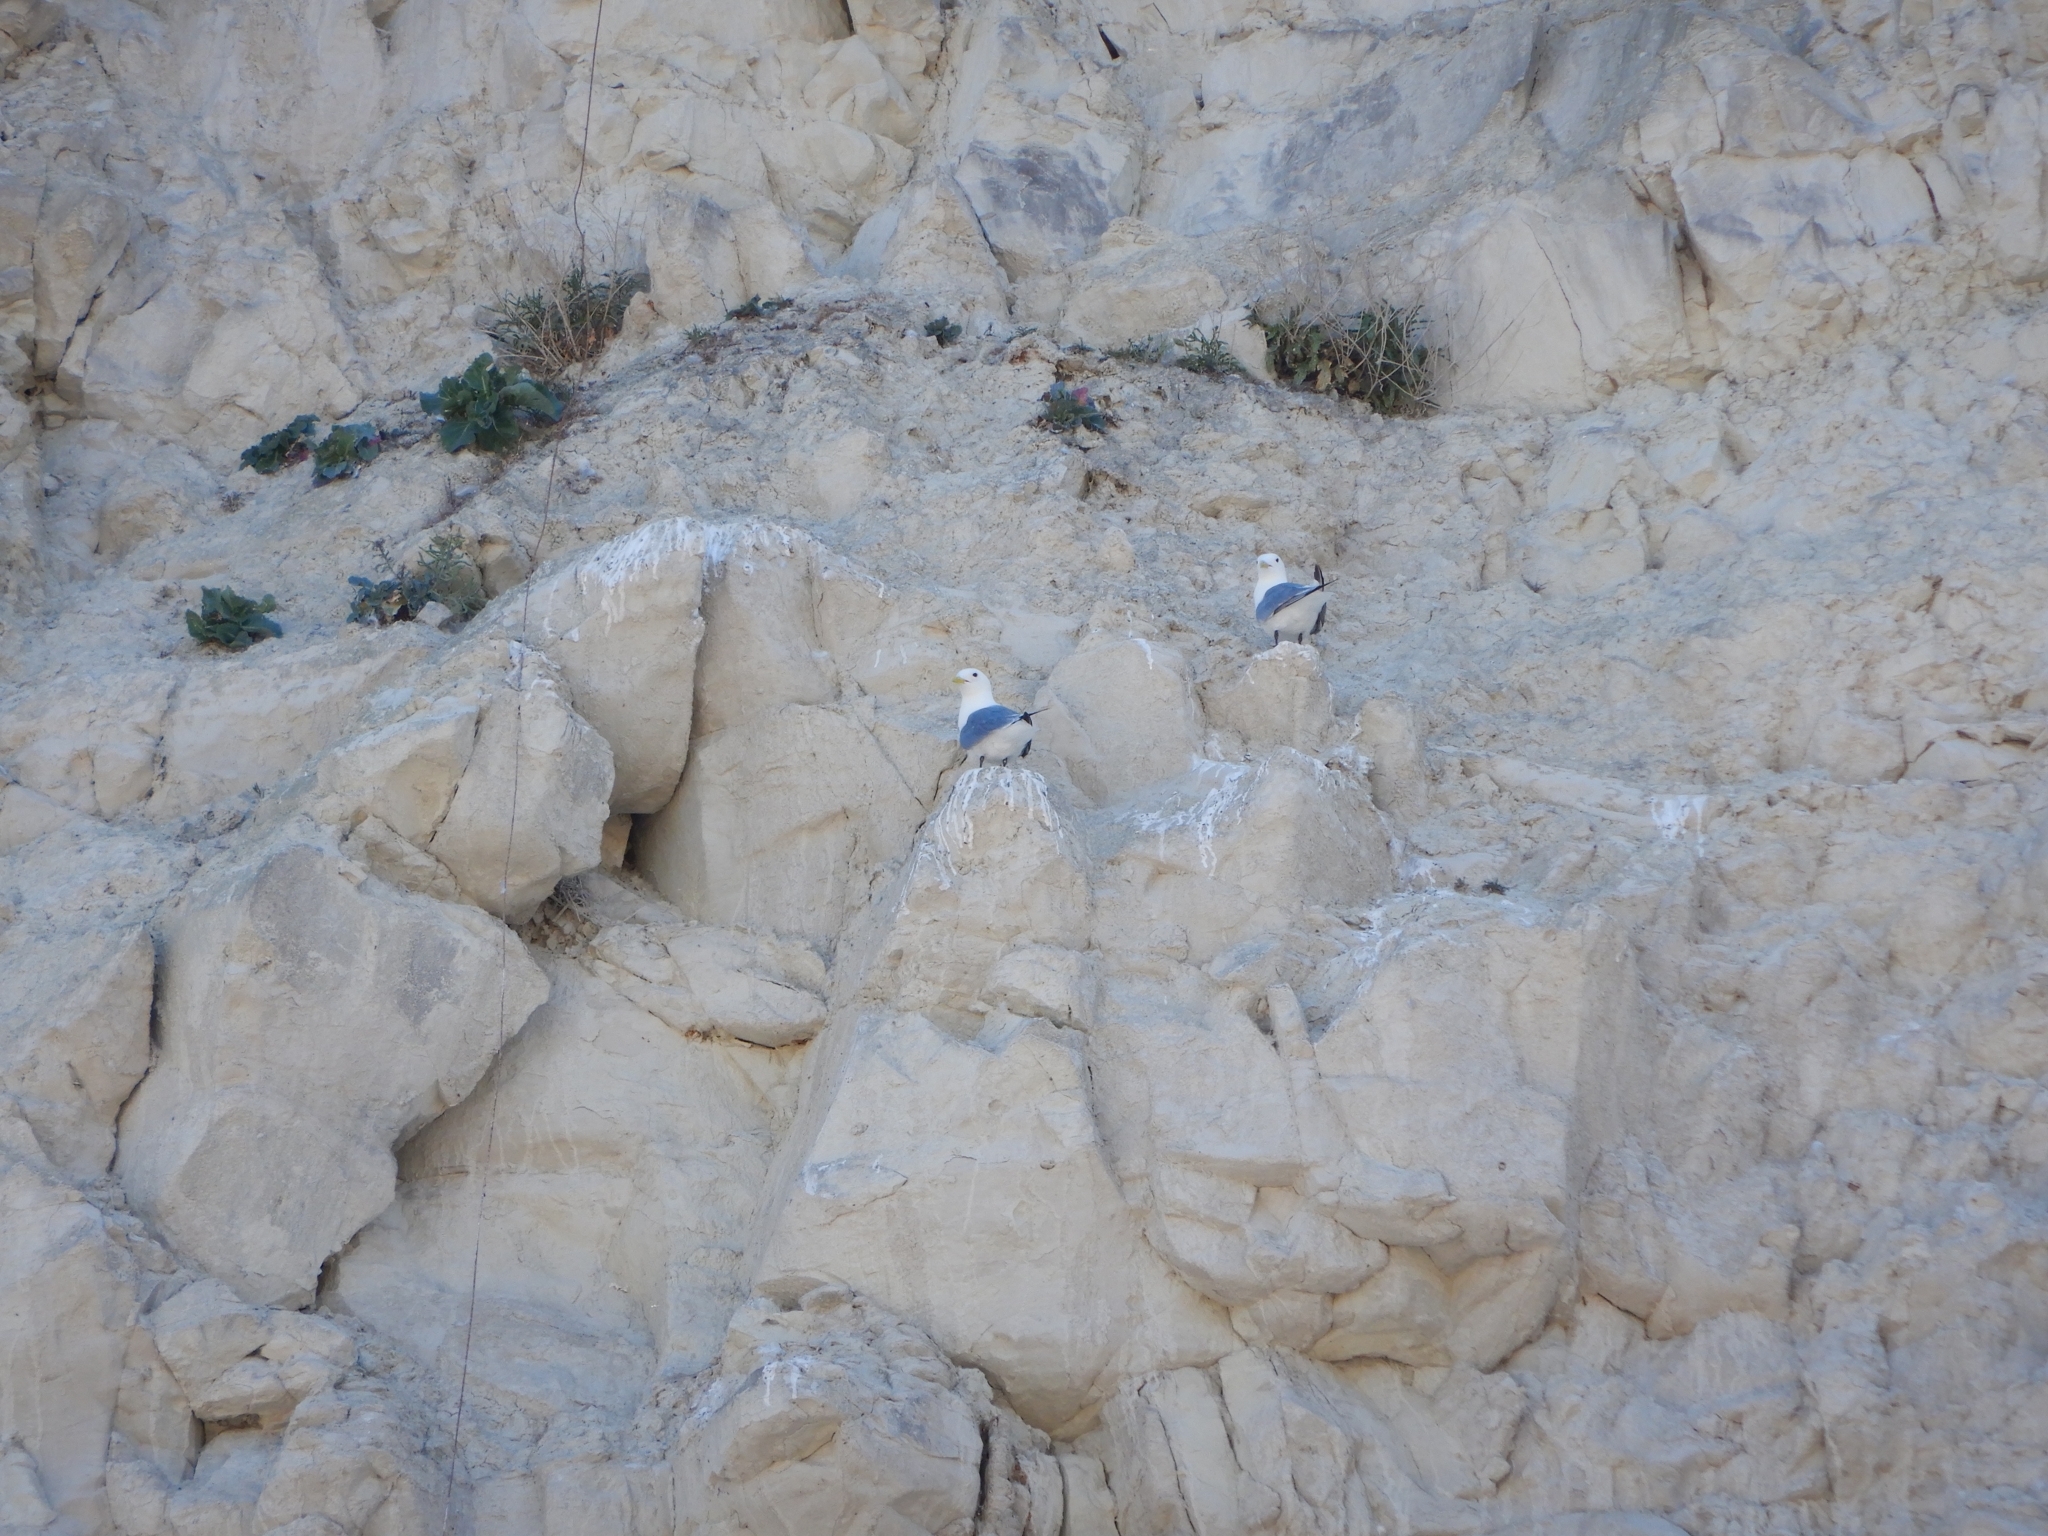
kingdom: Animalia
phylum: Chordata
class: Aves
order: Charadriiformes
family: Laridae
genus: Rissa
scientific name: Rissa tridactyla
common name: Black-legged kittiwake
